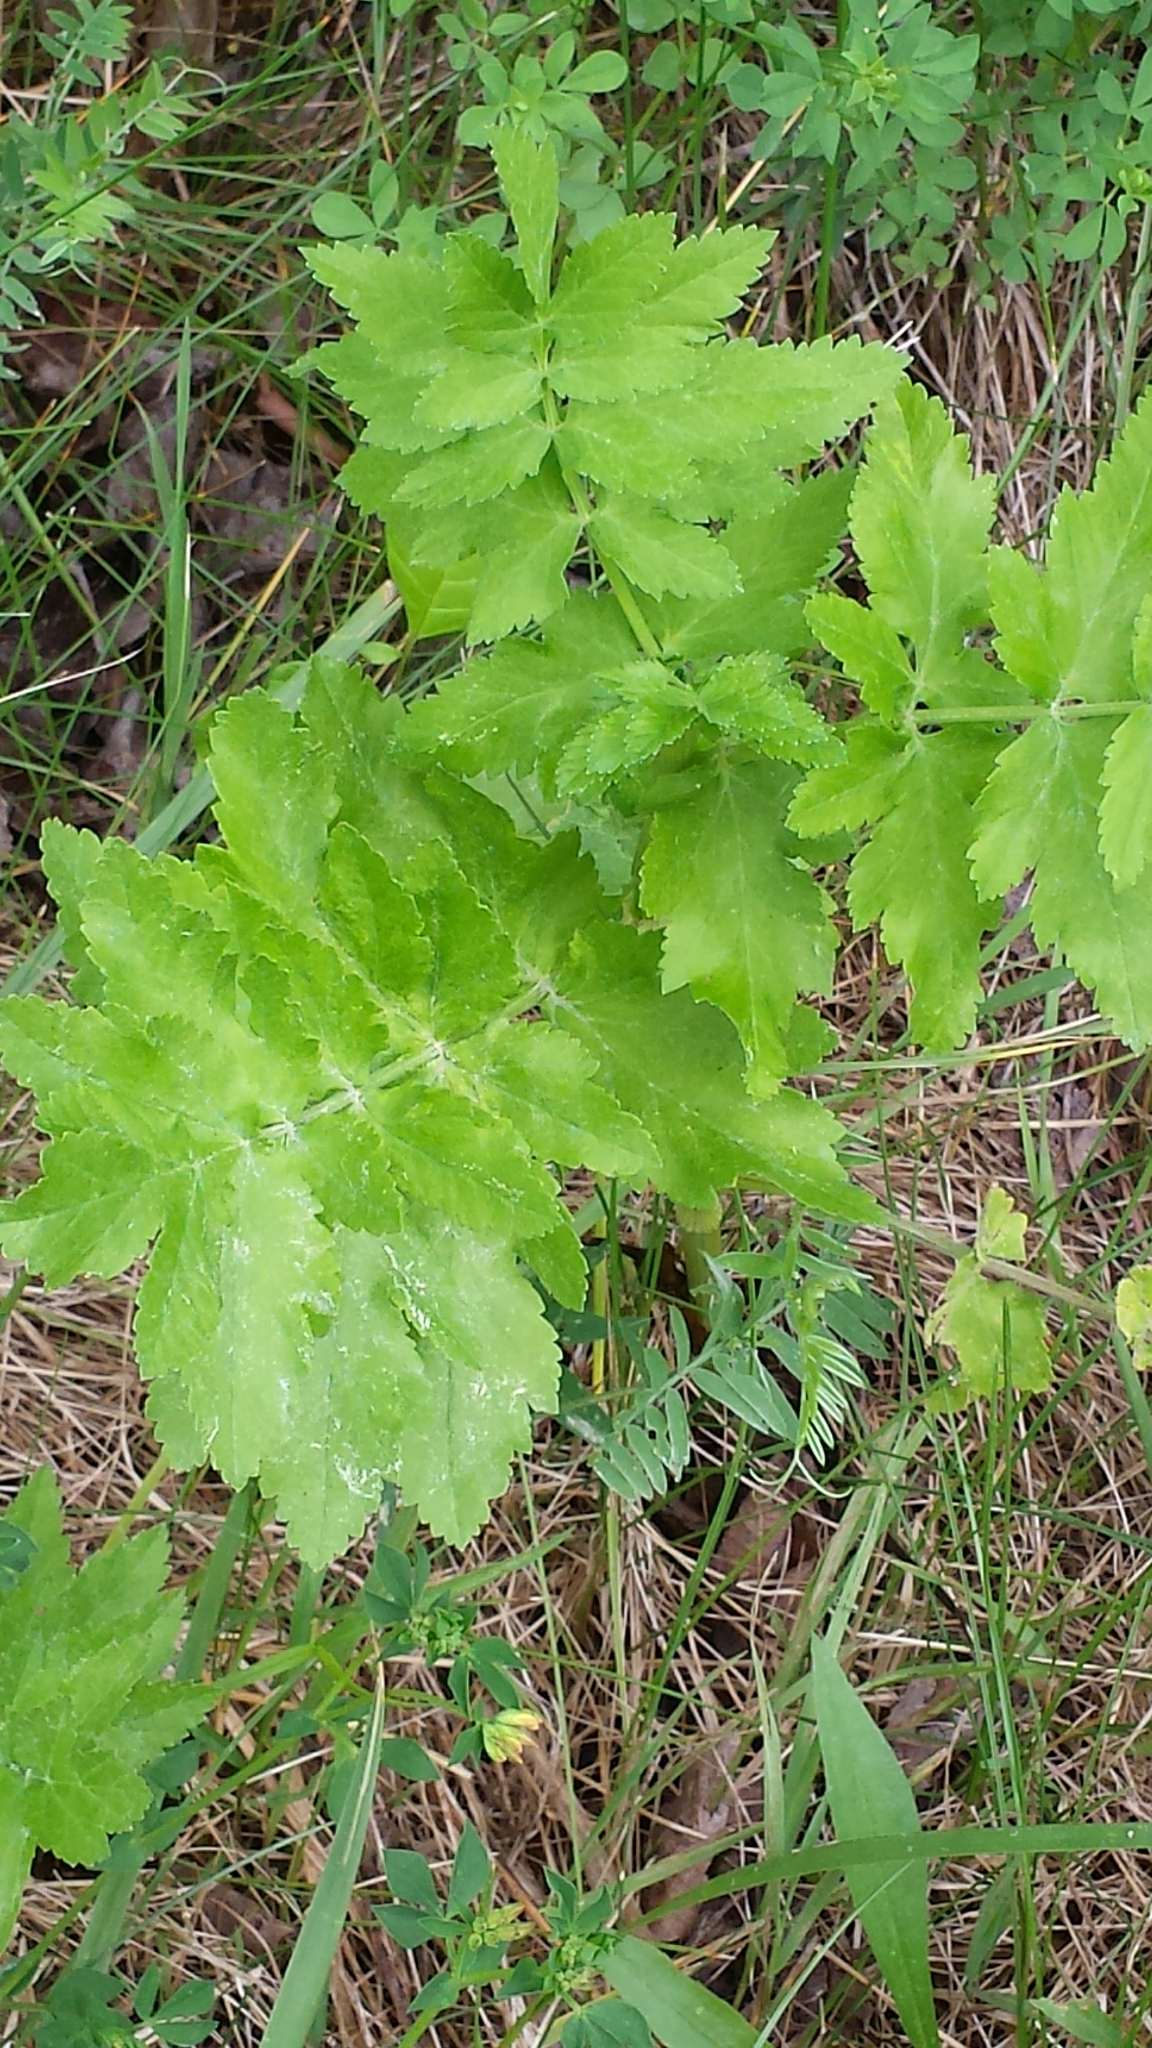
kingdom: Plantae
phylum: Tracheophyta
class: Magnoliopsida
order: Apiales
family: Apiaceae
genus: Pastinaca
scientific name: Pastinaca sativa
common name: Wild parsnip
